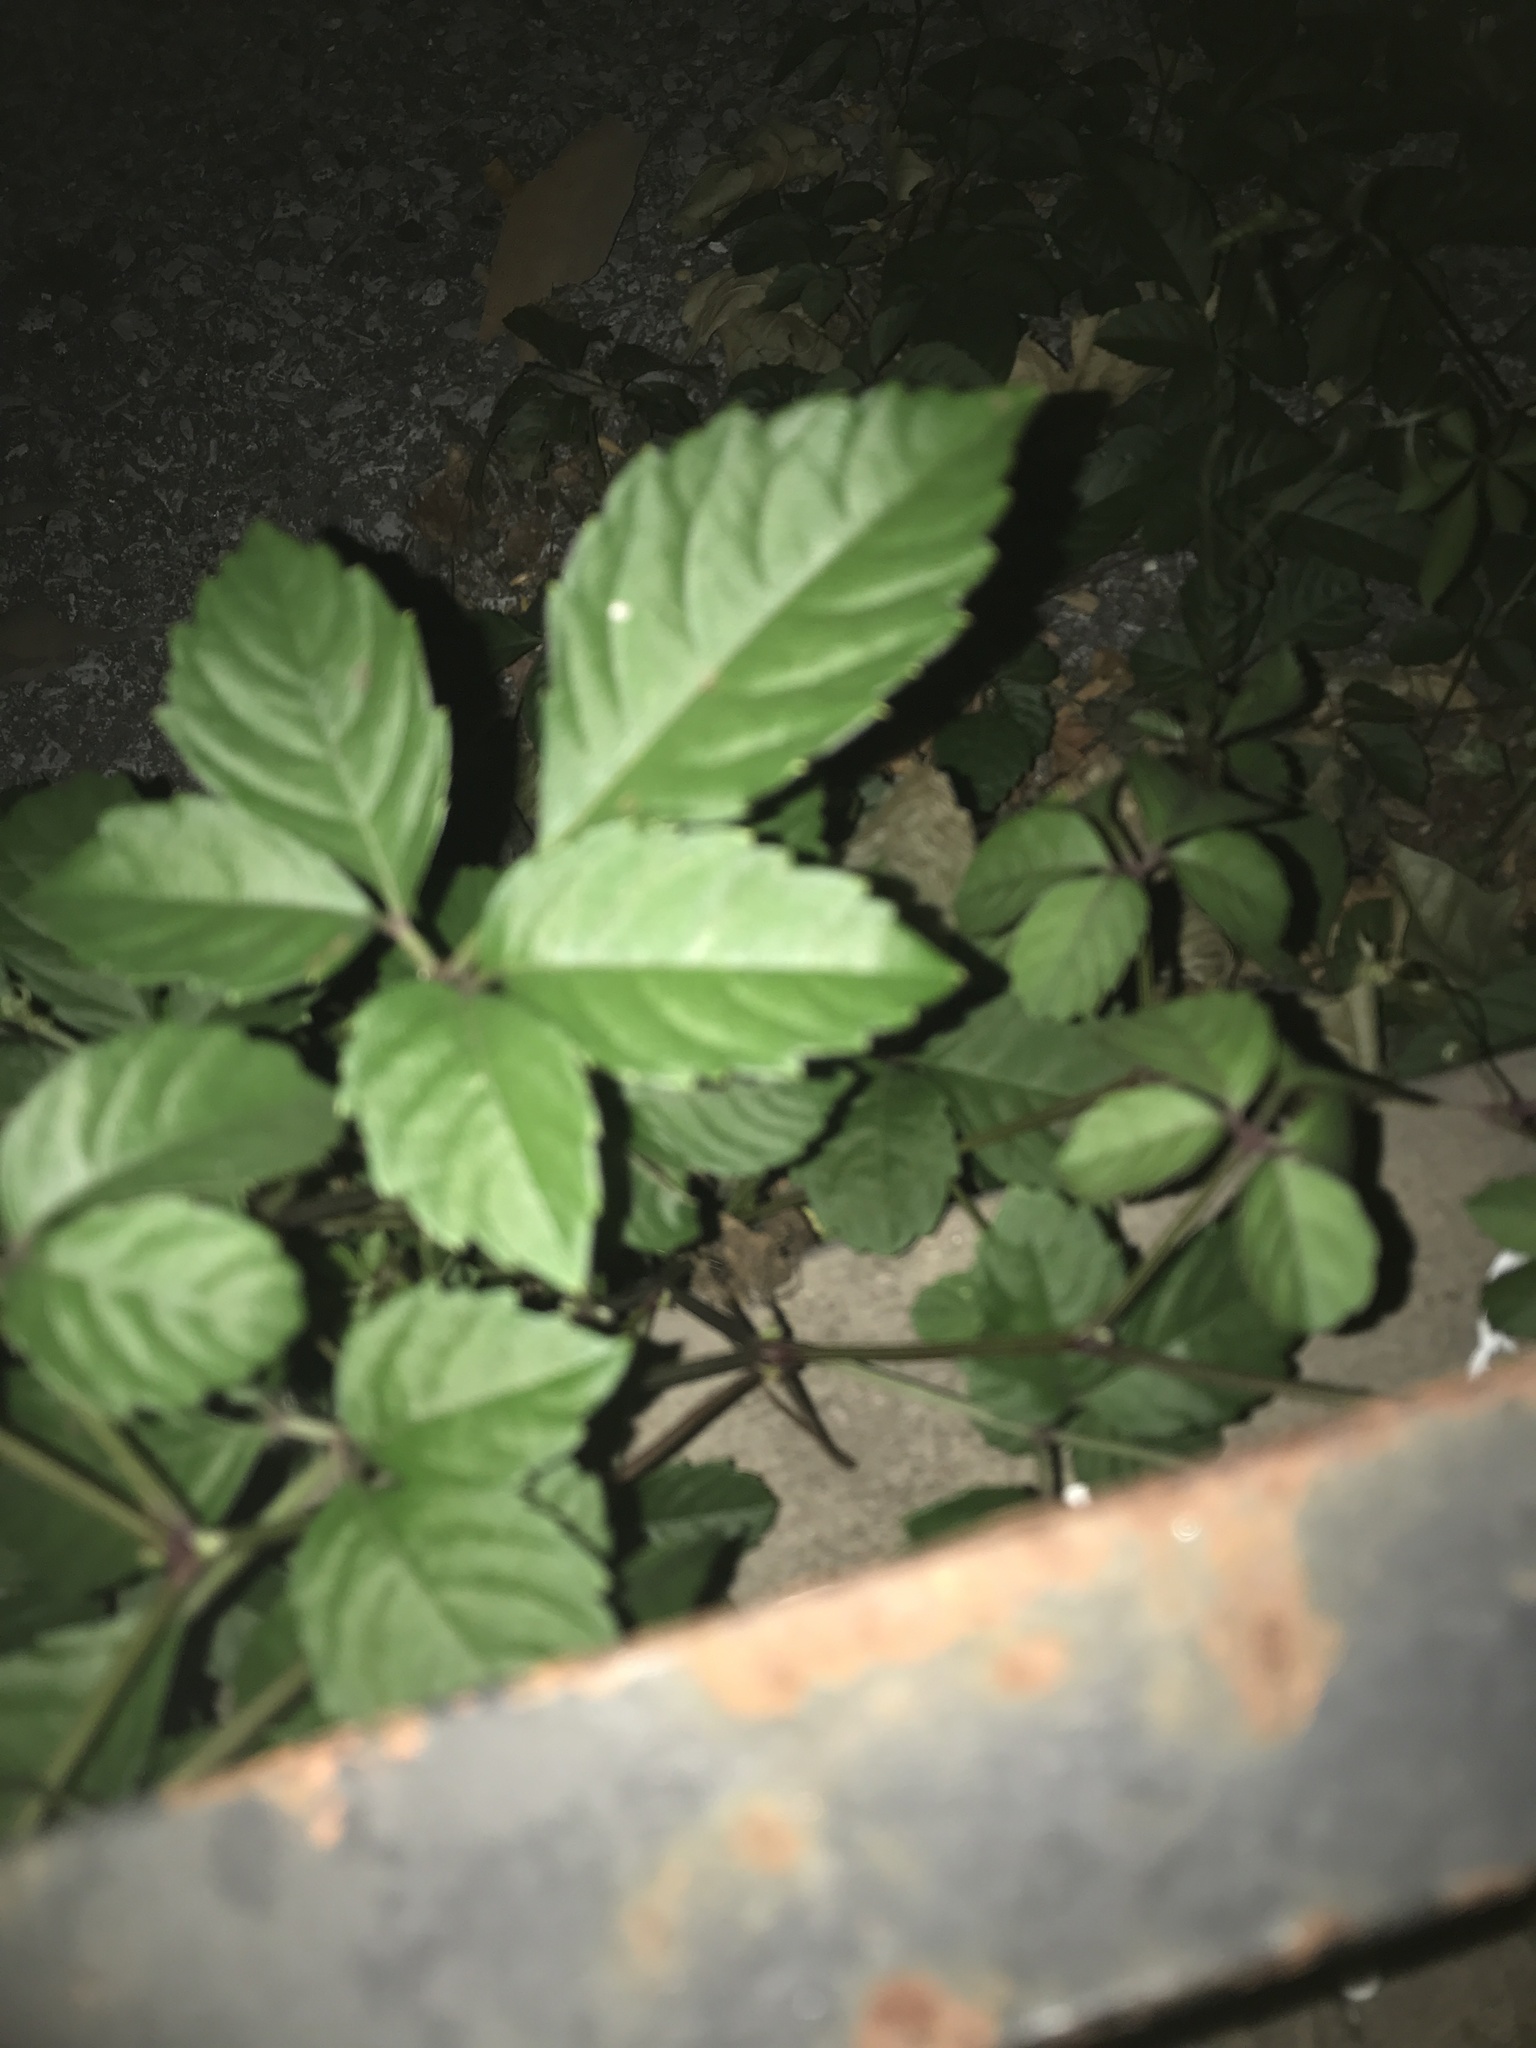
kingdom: Plantae
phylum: Tracheophyta
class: Magnoliopsida
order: Vitales
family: Vitaceae
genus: Causonis
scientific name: Causonis japonica
